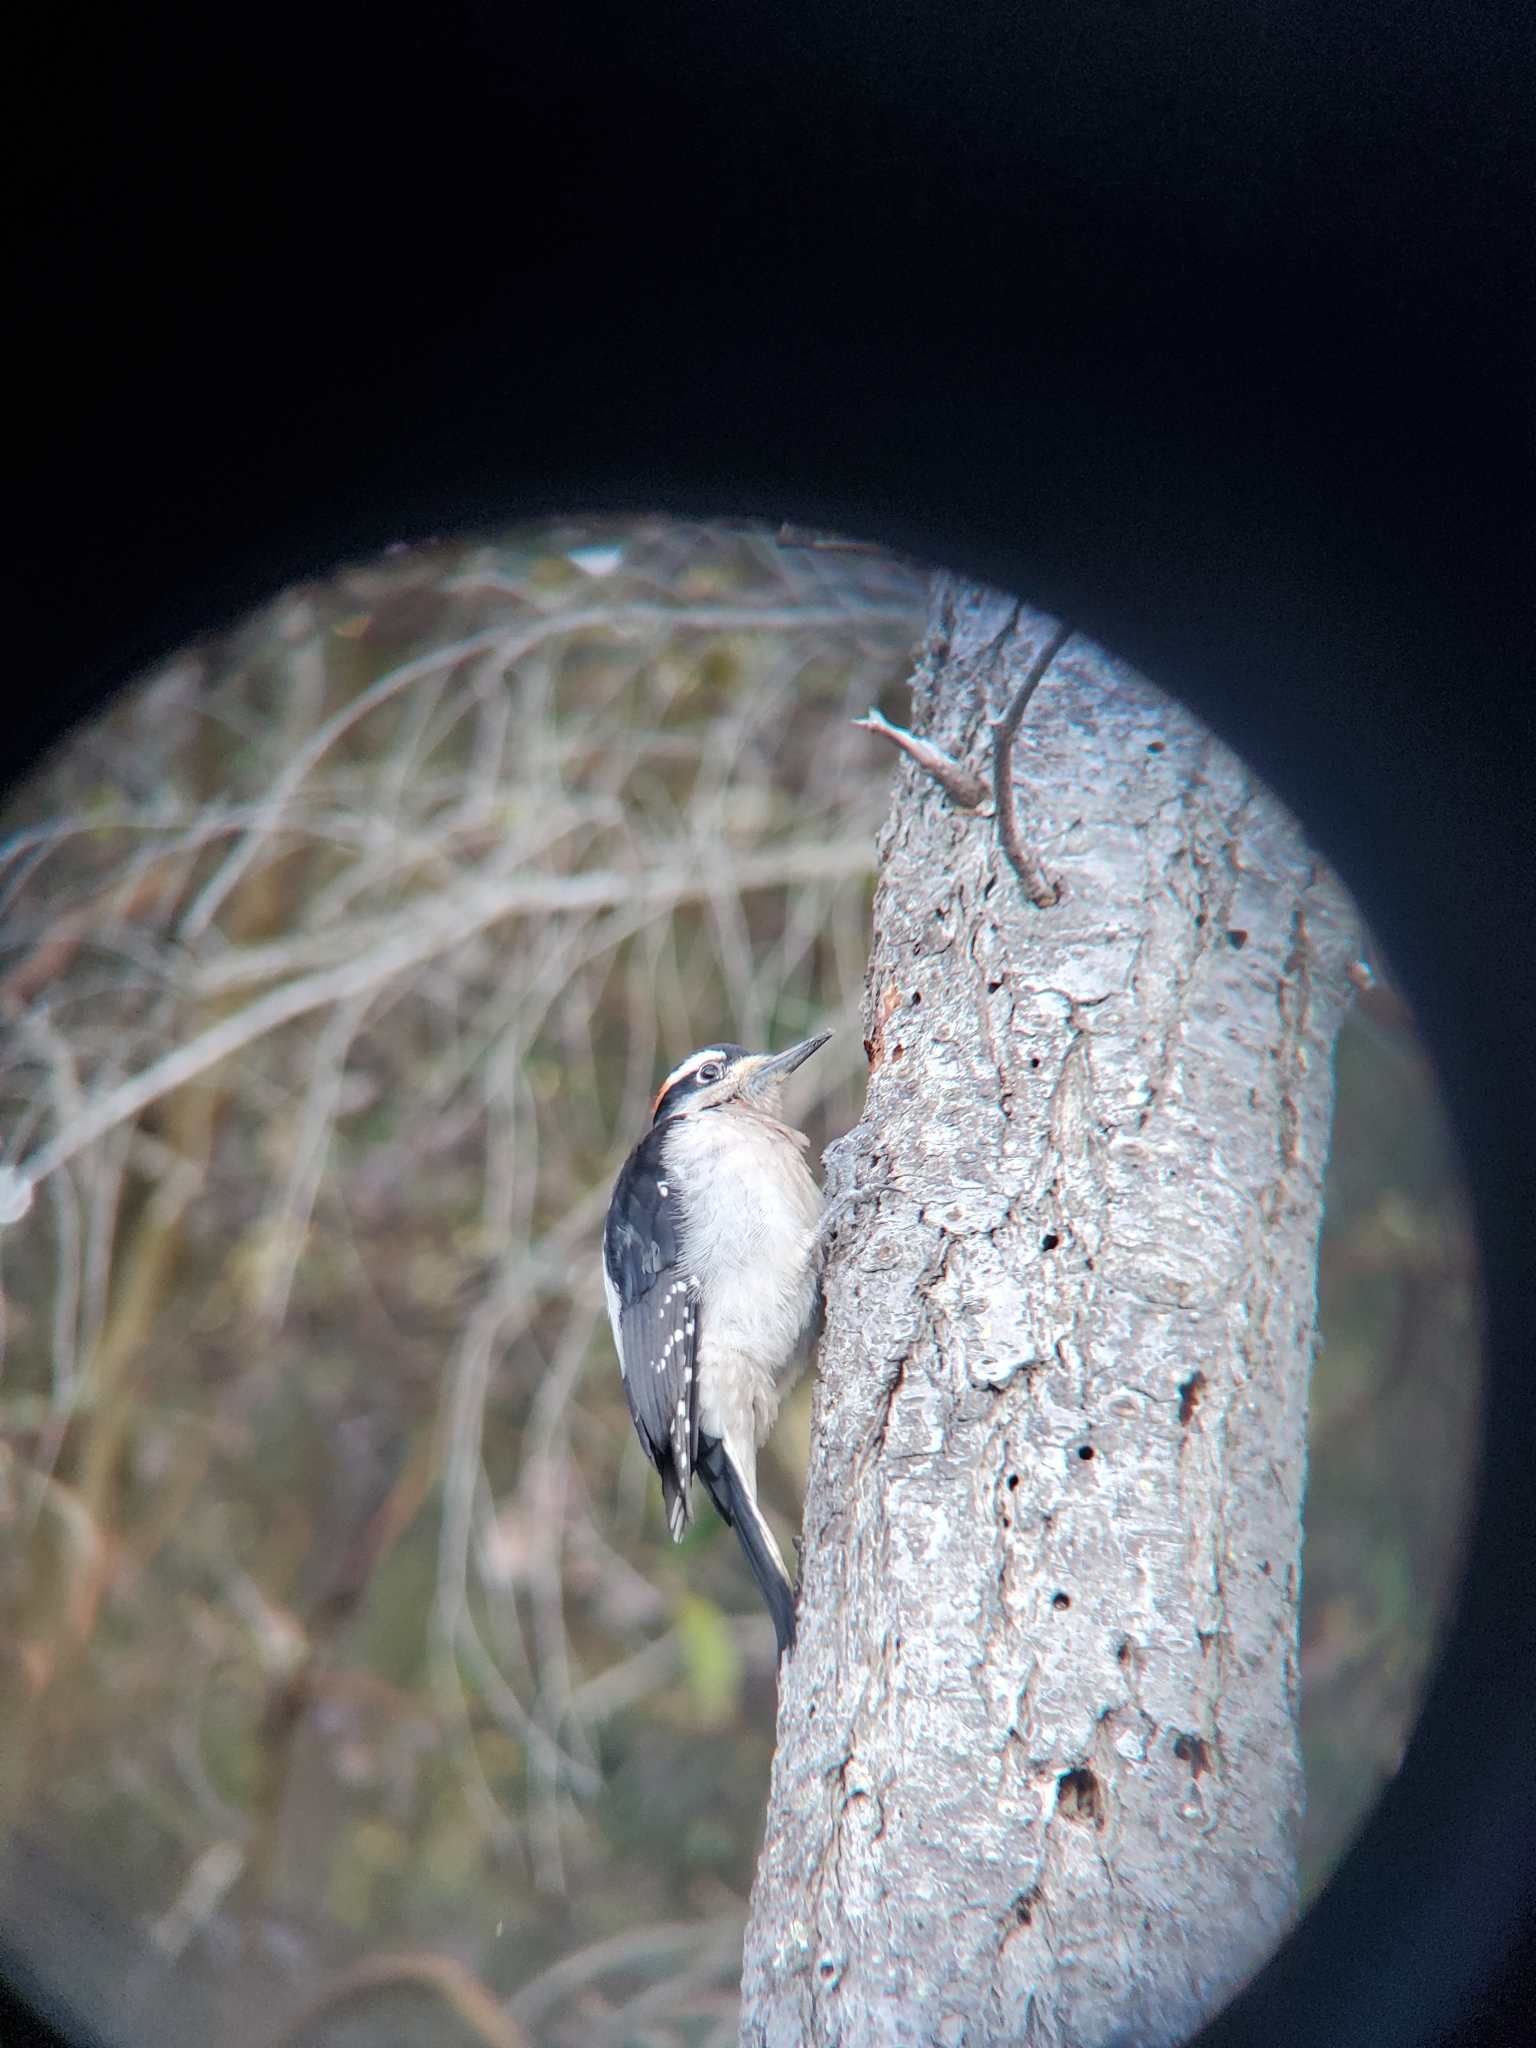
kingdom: Animalia
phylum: Chordata
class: Aves
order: Piciformes
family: Picidae
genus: Leuconotopicus
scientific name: Leuconotopicus villosus
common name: Hairy woodpecker
